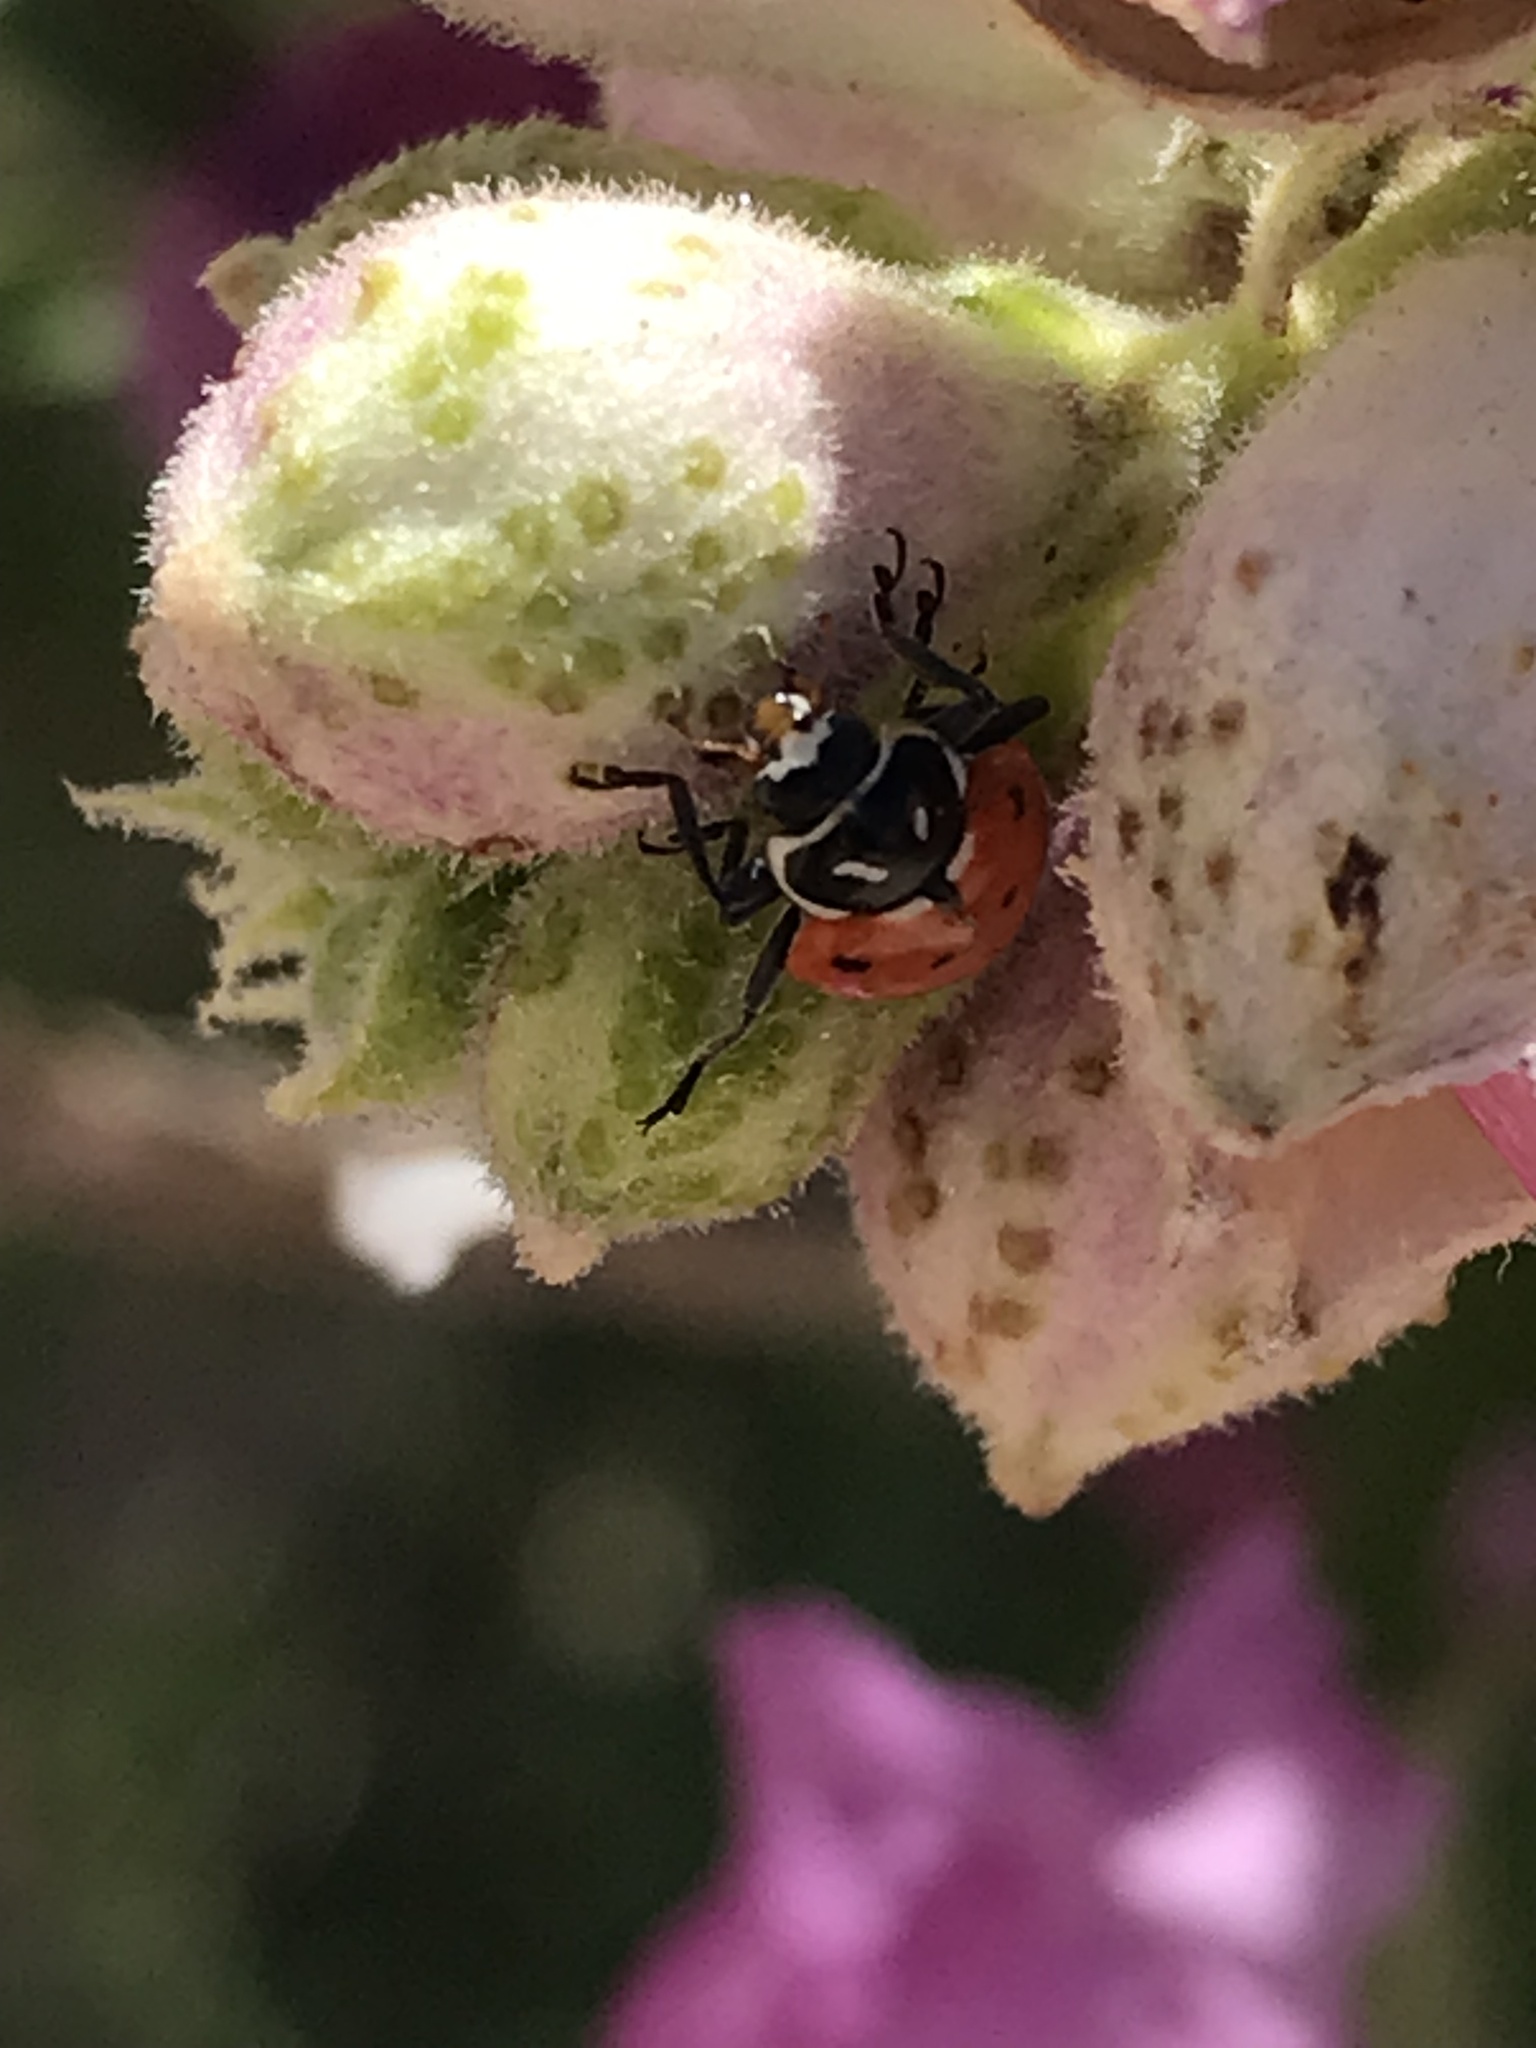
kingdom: Animalia
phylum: Arthropoda
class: Insecta
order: Coleoptera
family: Coccinellidae
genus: Hippodamia
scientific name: Hippodamia convergens
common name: Convergent lady beetle
